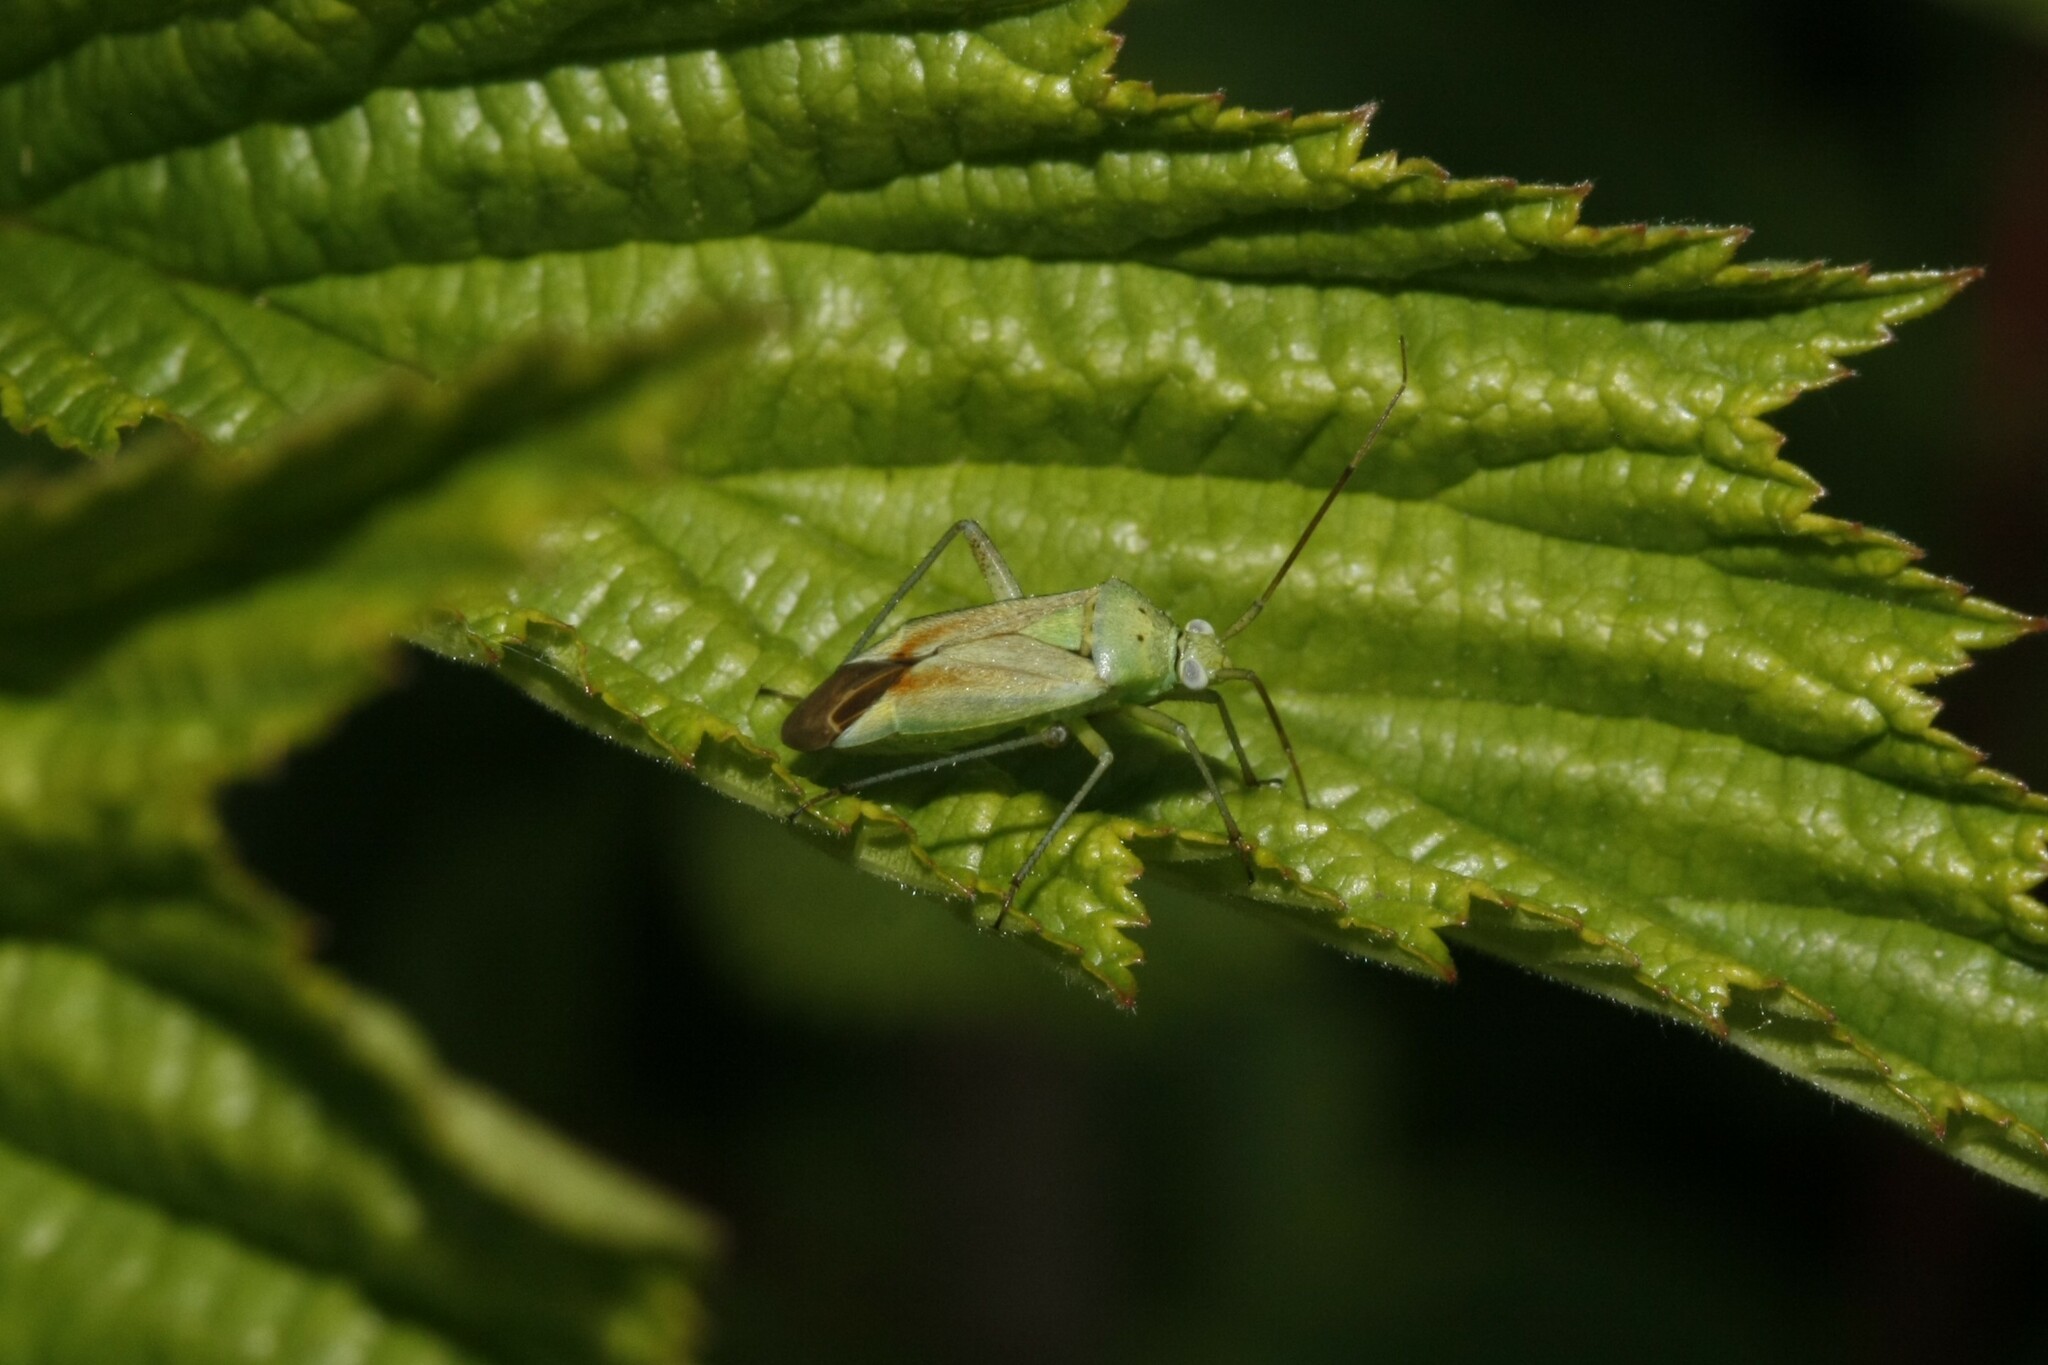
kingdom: Animalia
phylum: Arthropoda
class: Insecta
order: Hemiptera
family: Miridae
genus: Closterotomus
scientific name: Closterotomus norvegicus
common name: Plant bug
